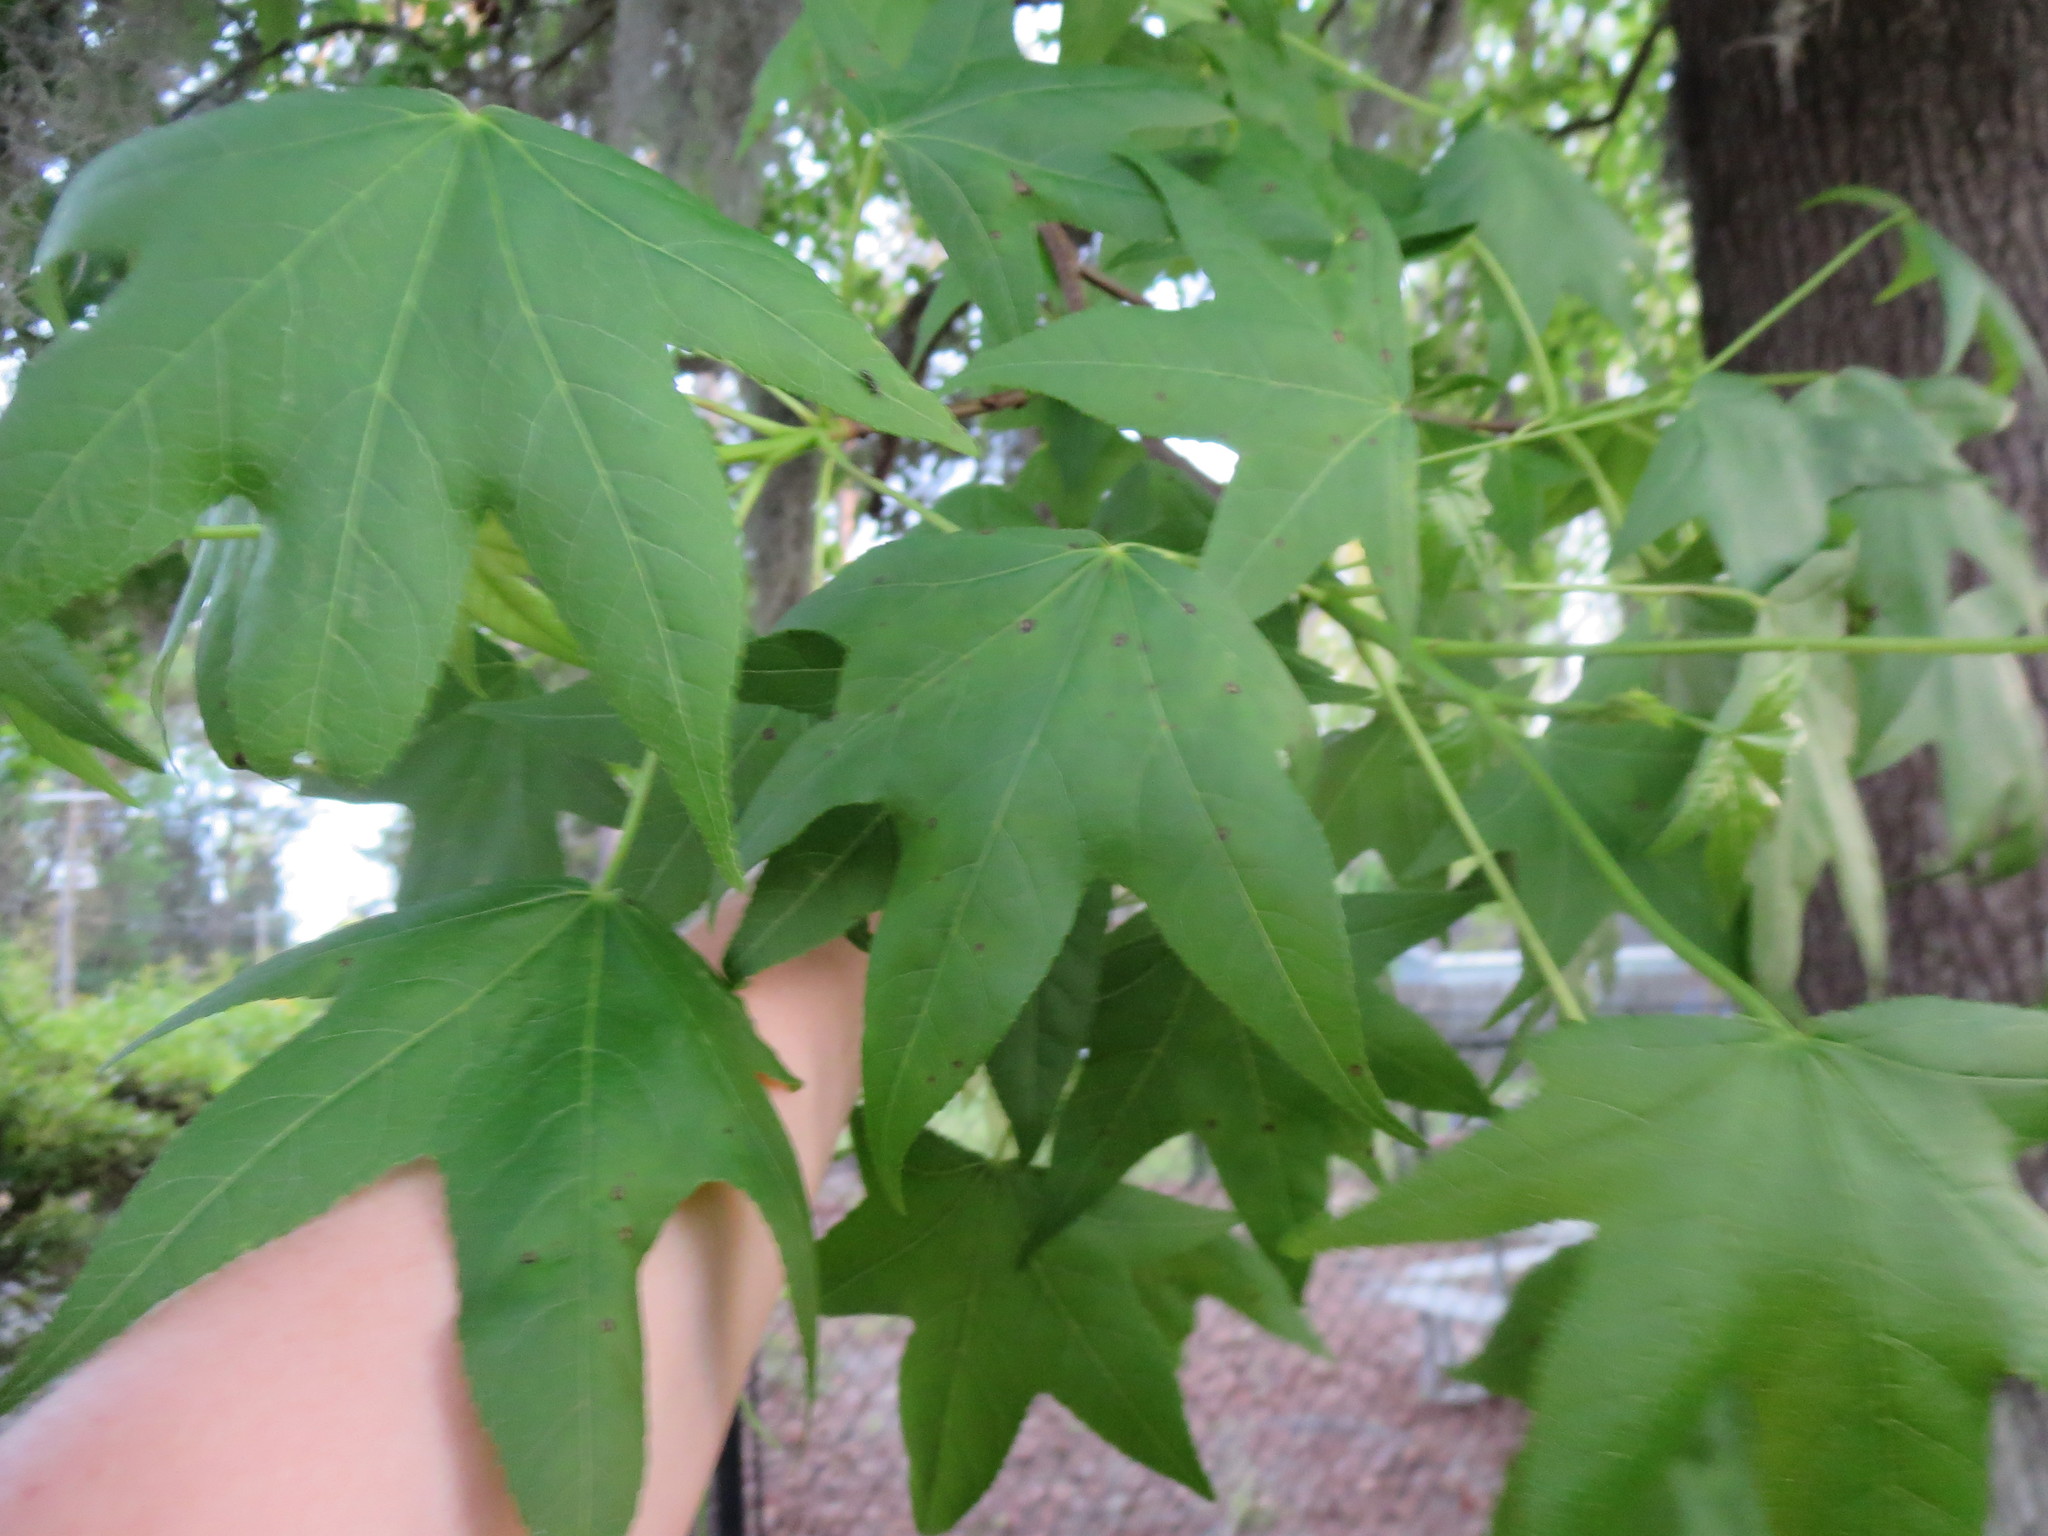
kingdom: Plantae
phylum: Tracheophyta
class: Magnoliopsida
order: Saxifragales
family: Altingiaceae
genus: Liquidambar
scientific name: Liquidambar styraciflua
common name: Sweet gum
